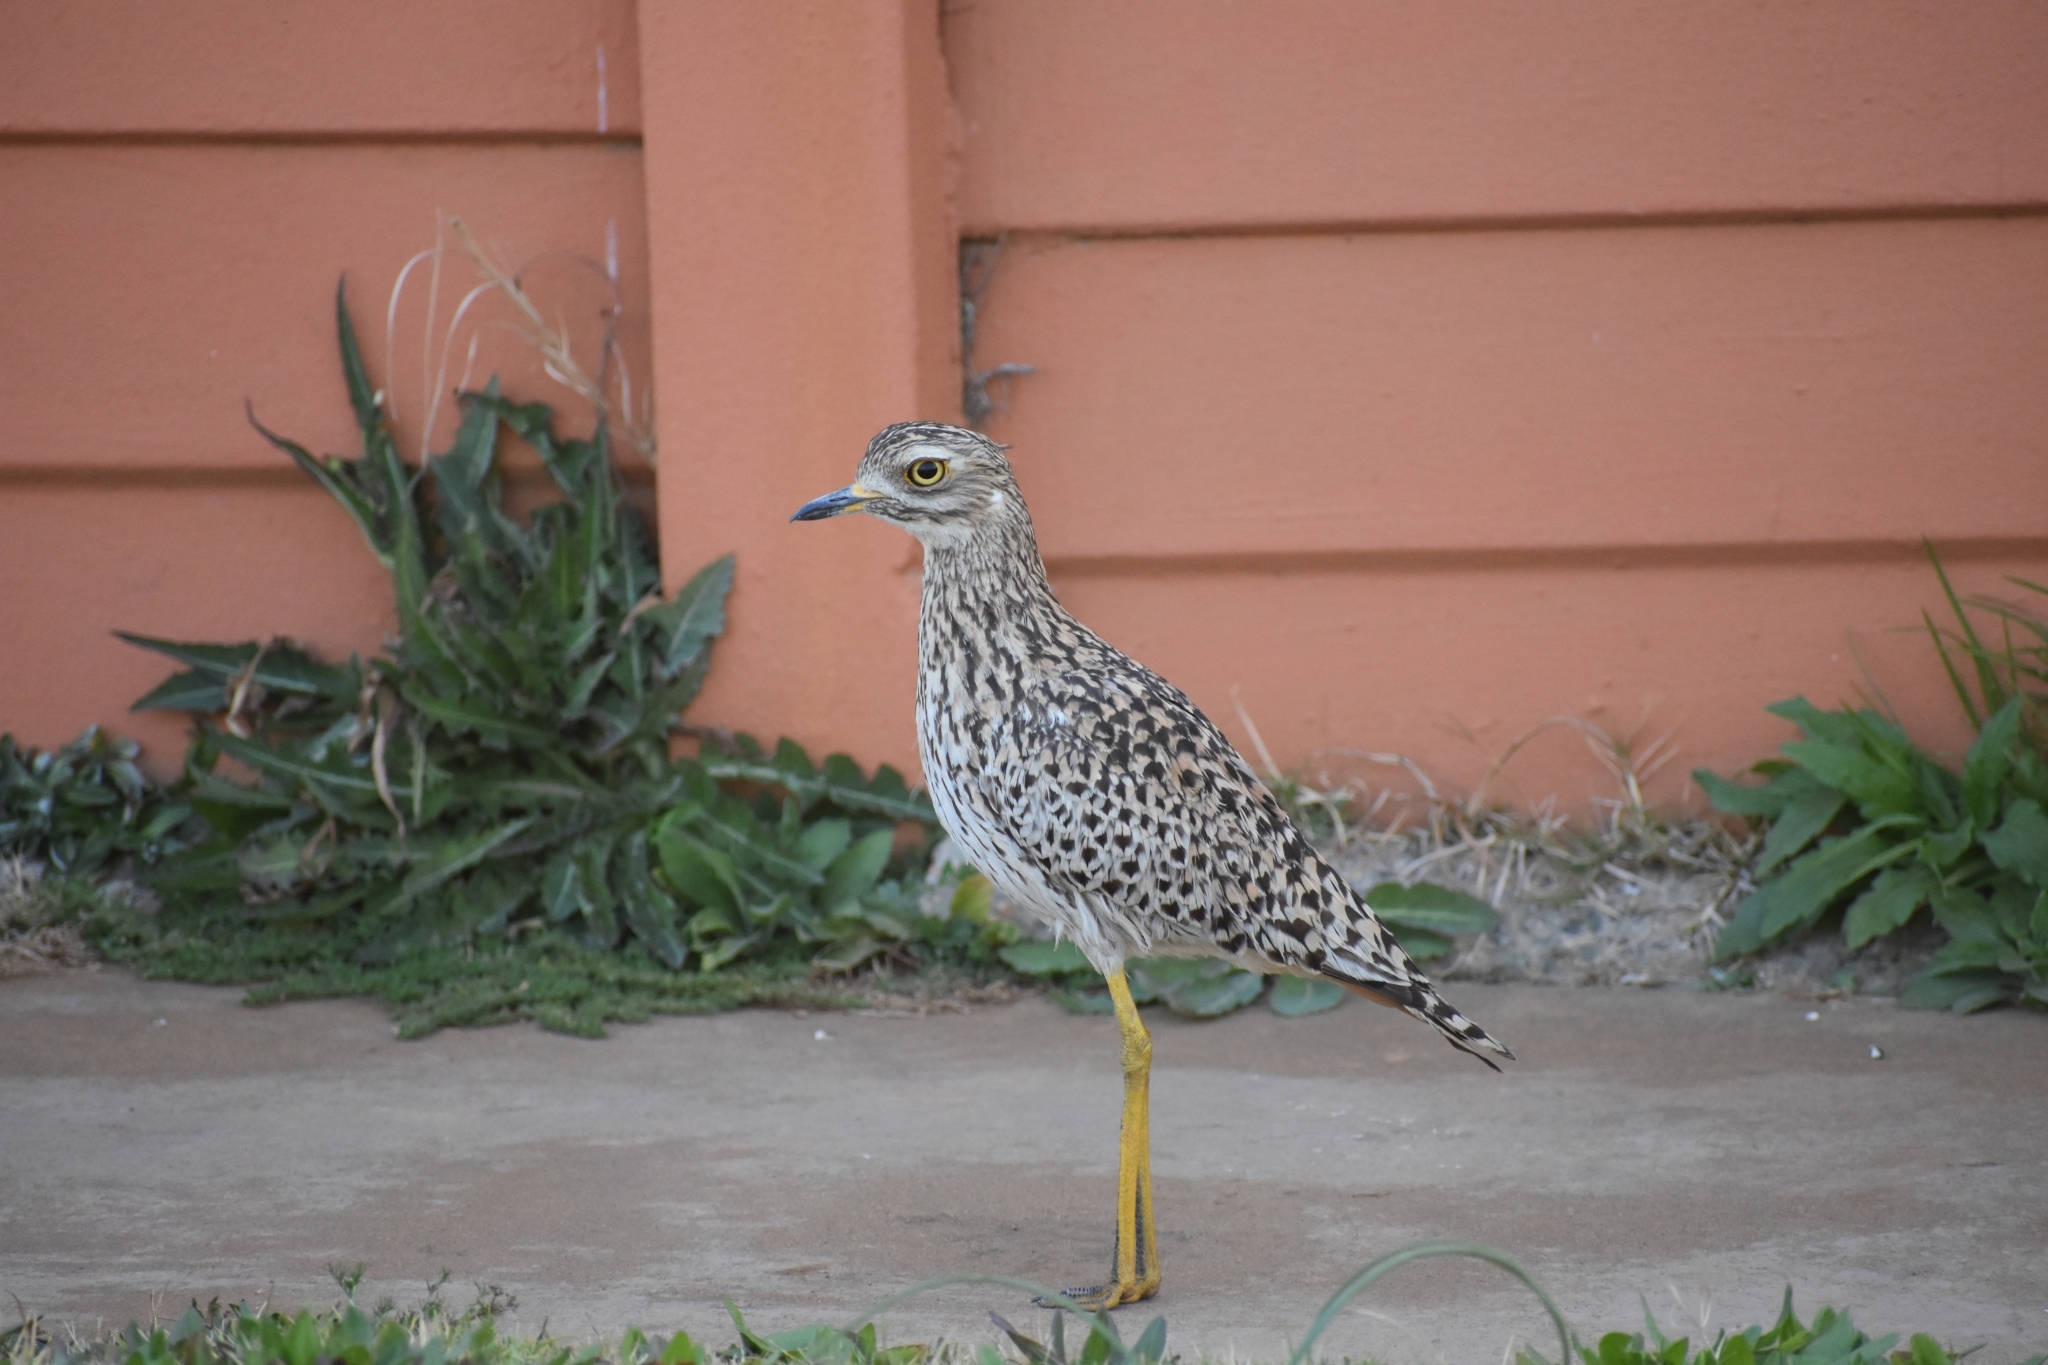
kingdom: Animalia
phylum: Chordata
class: Aves
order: Charadriiformes
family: Burhinidae
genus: Burhinus
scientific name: Burhinus capensis
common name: Spotted thick-knee
